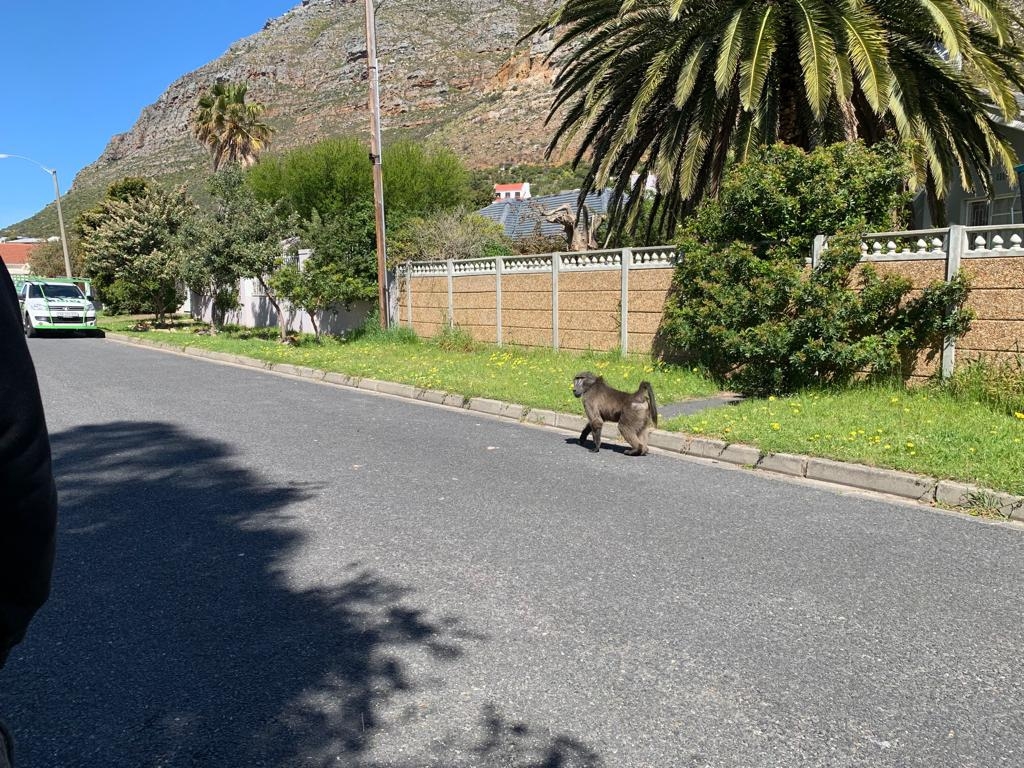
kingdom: Animalia
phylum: Chordata
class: Mammalia
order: Primates
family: Cercopithecidae
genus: Papio
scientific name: Papio ursinus
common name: Chacma baboon
